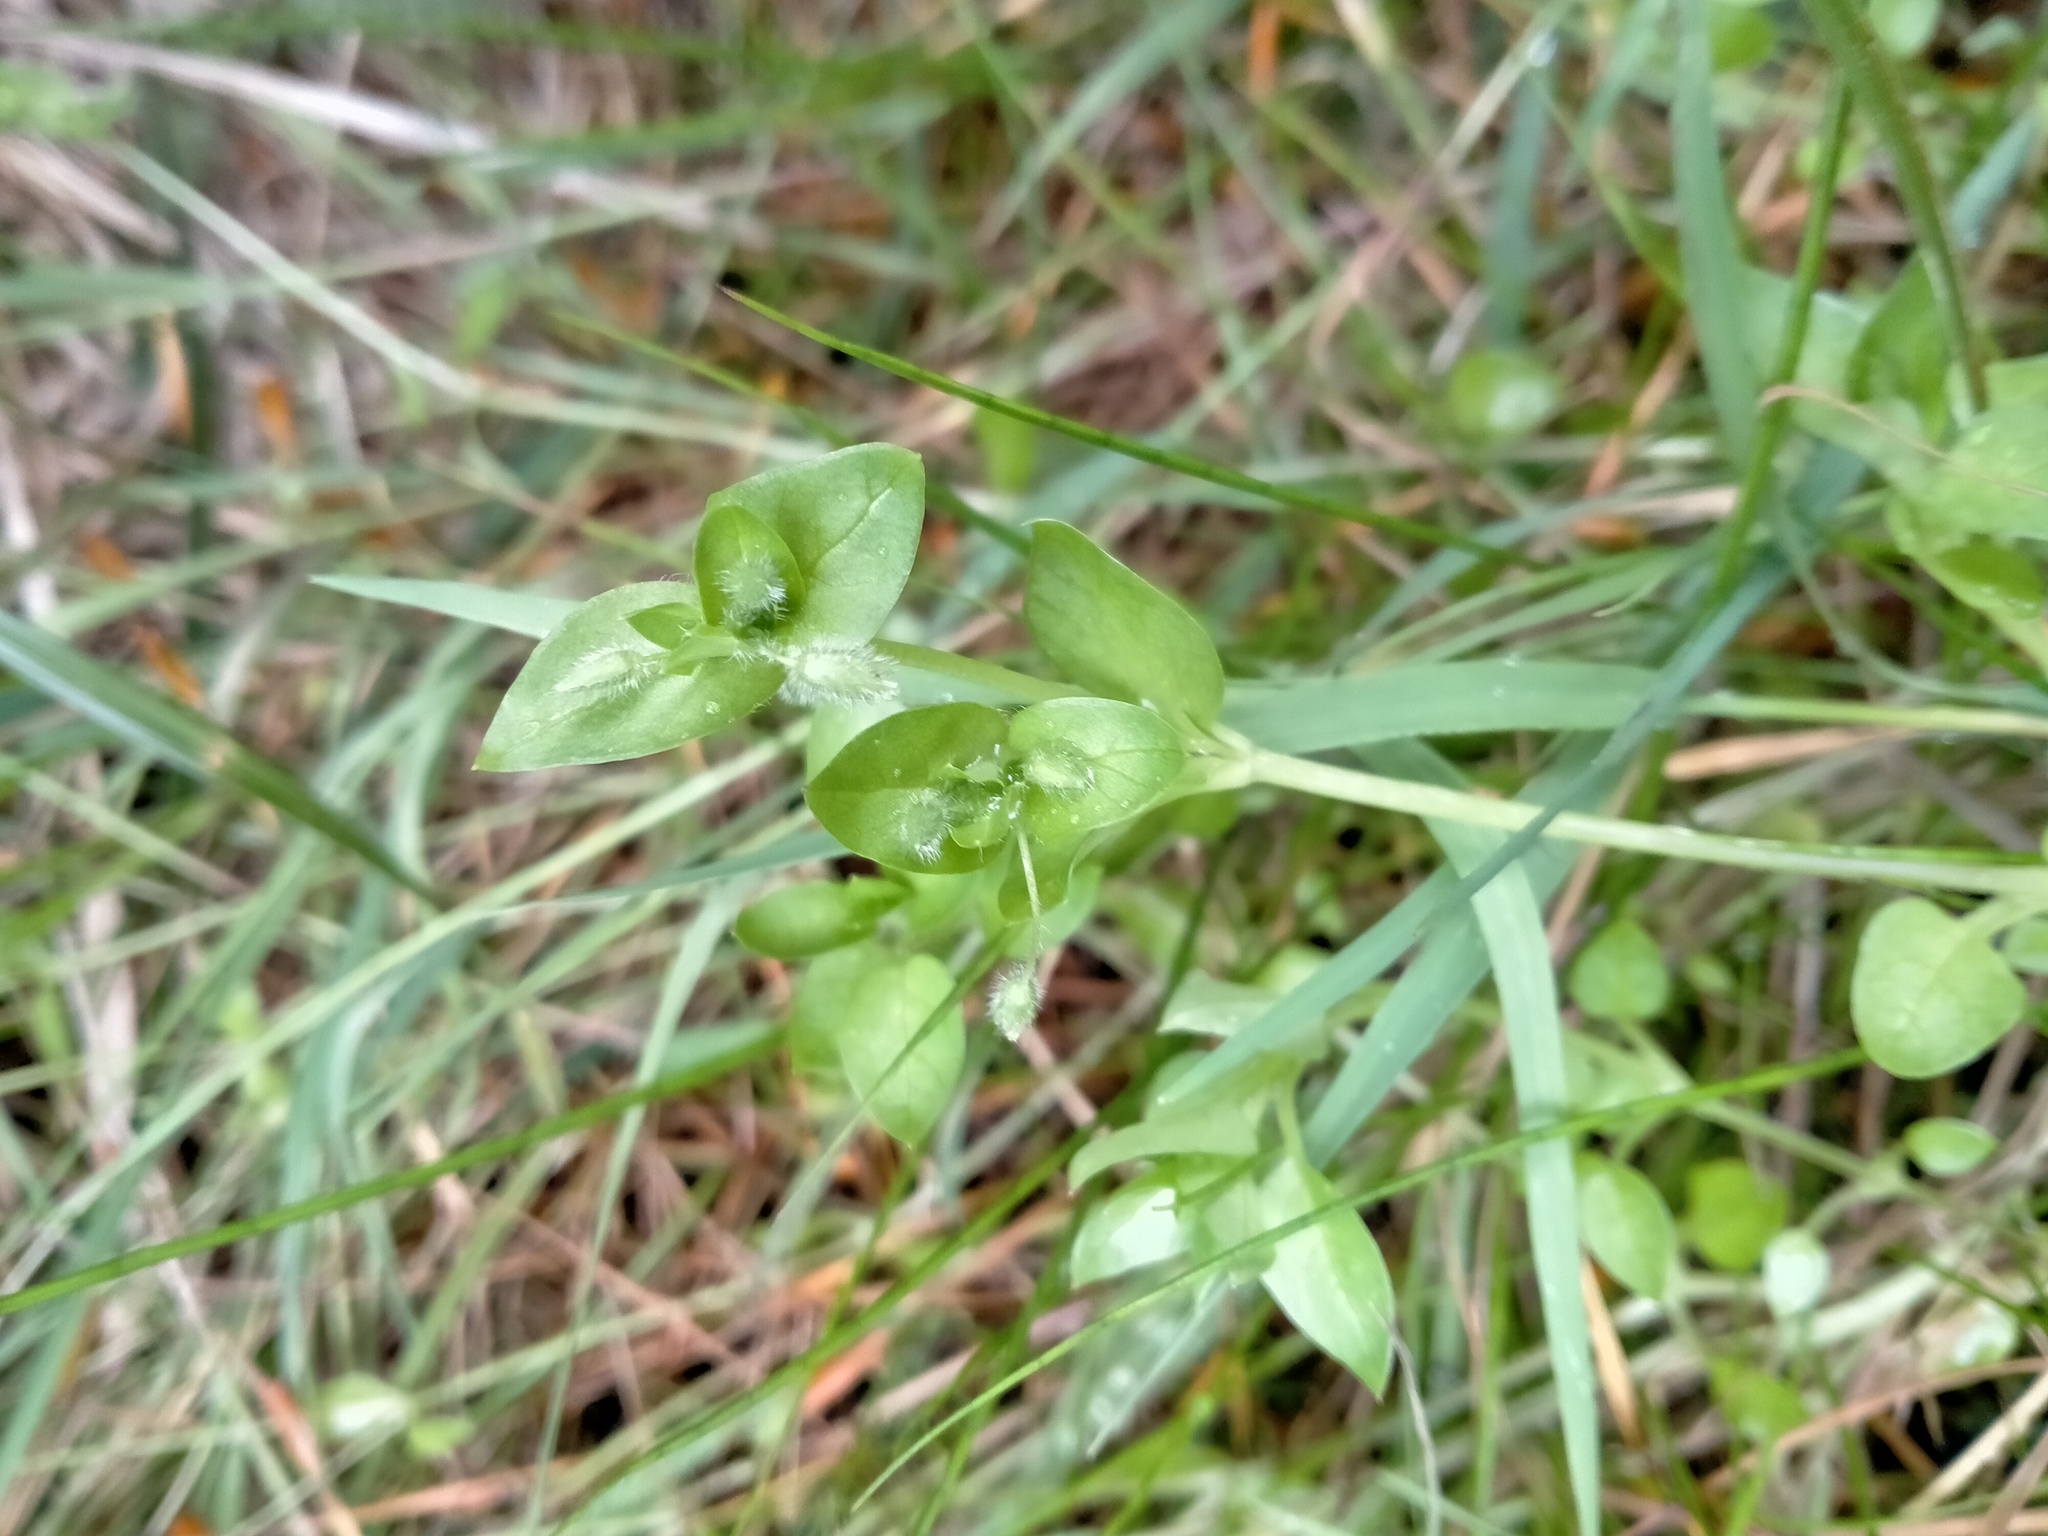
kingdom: Plantae
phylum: Tracheophyta
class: Magnoliopsida
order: Caryophyllales
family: Caryophyllaceae
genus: Stellaria
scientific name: Stellaria media
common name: Common chickweed
